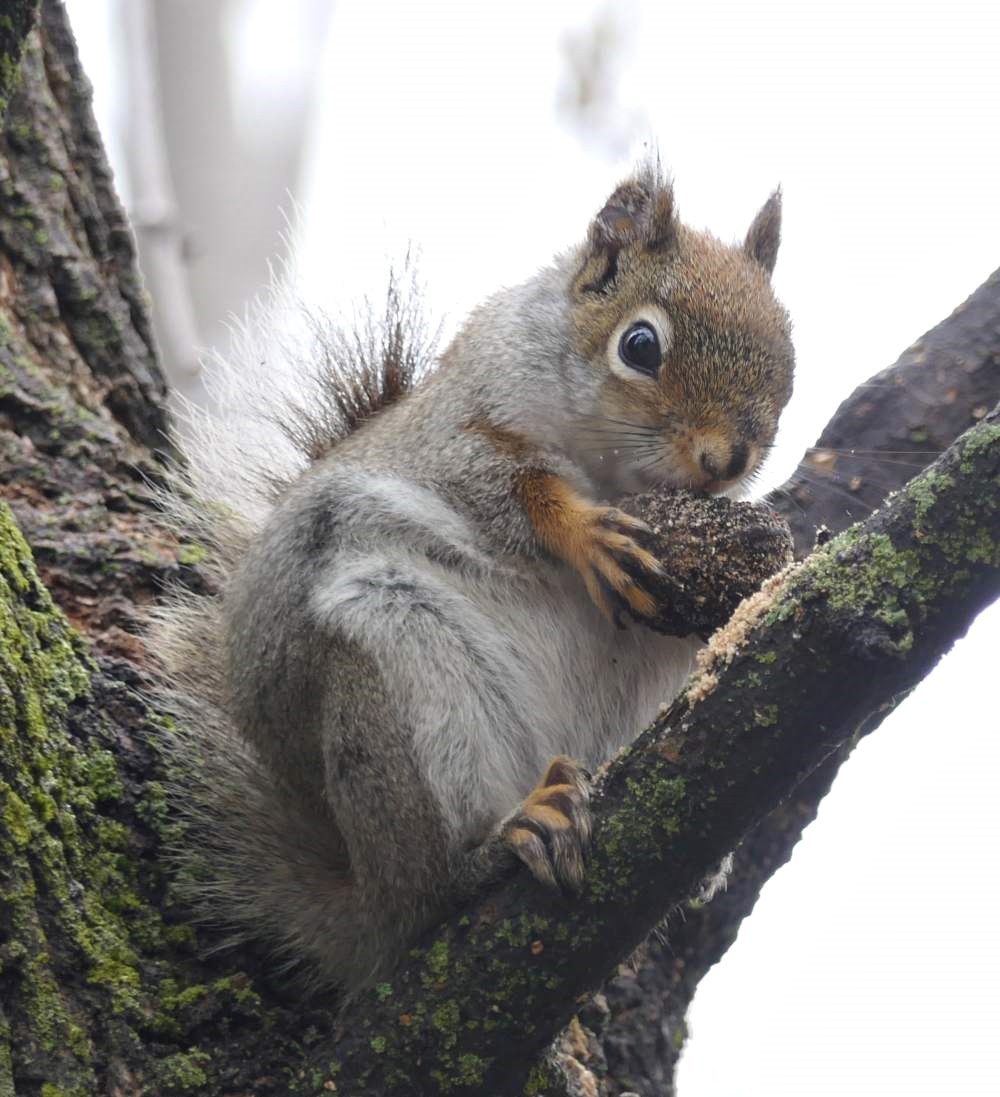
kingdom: Animalia
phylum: Chordata
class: Mammalia
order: Rodentia
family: Sciuridae
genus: Tamiasciurus
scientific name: Tamiasciurus hudsonicus
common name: Red squirrel
